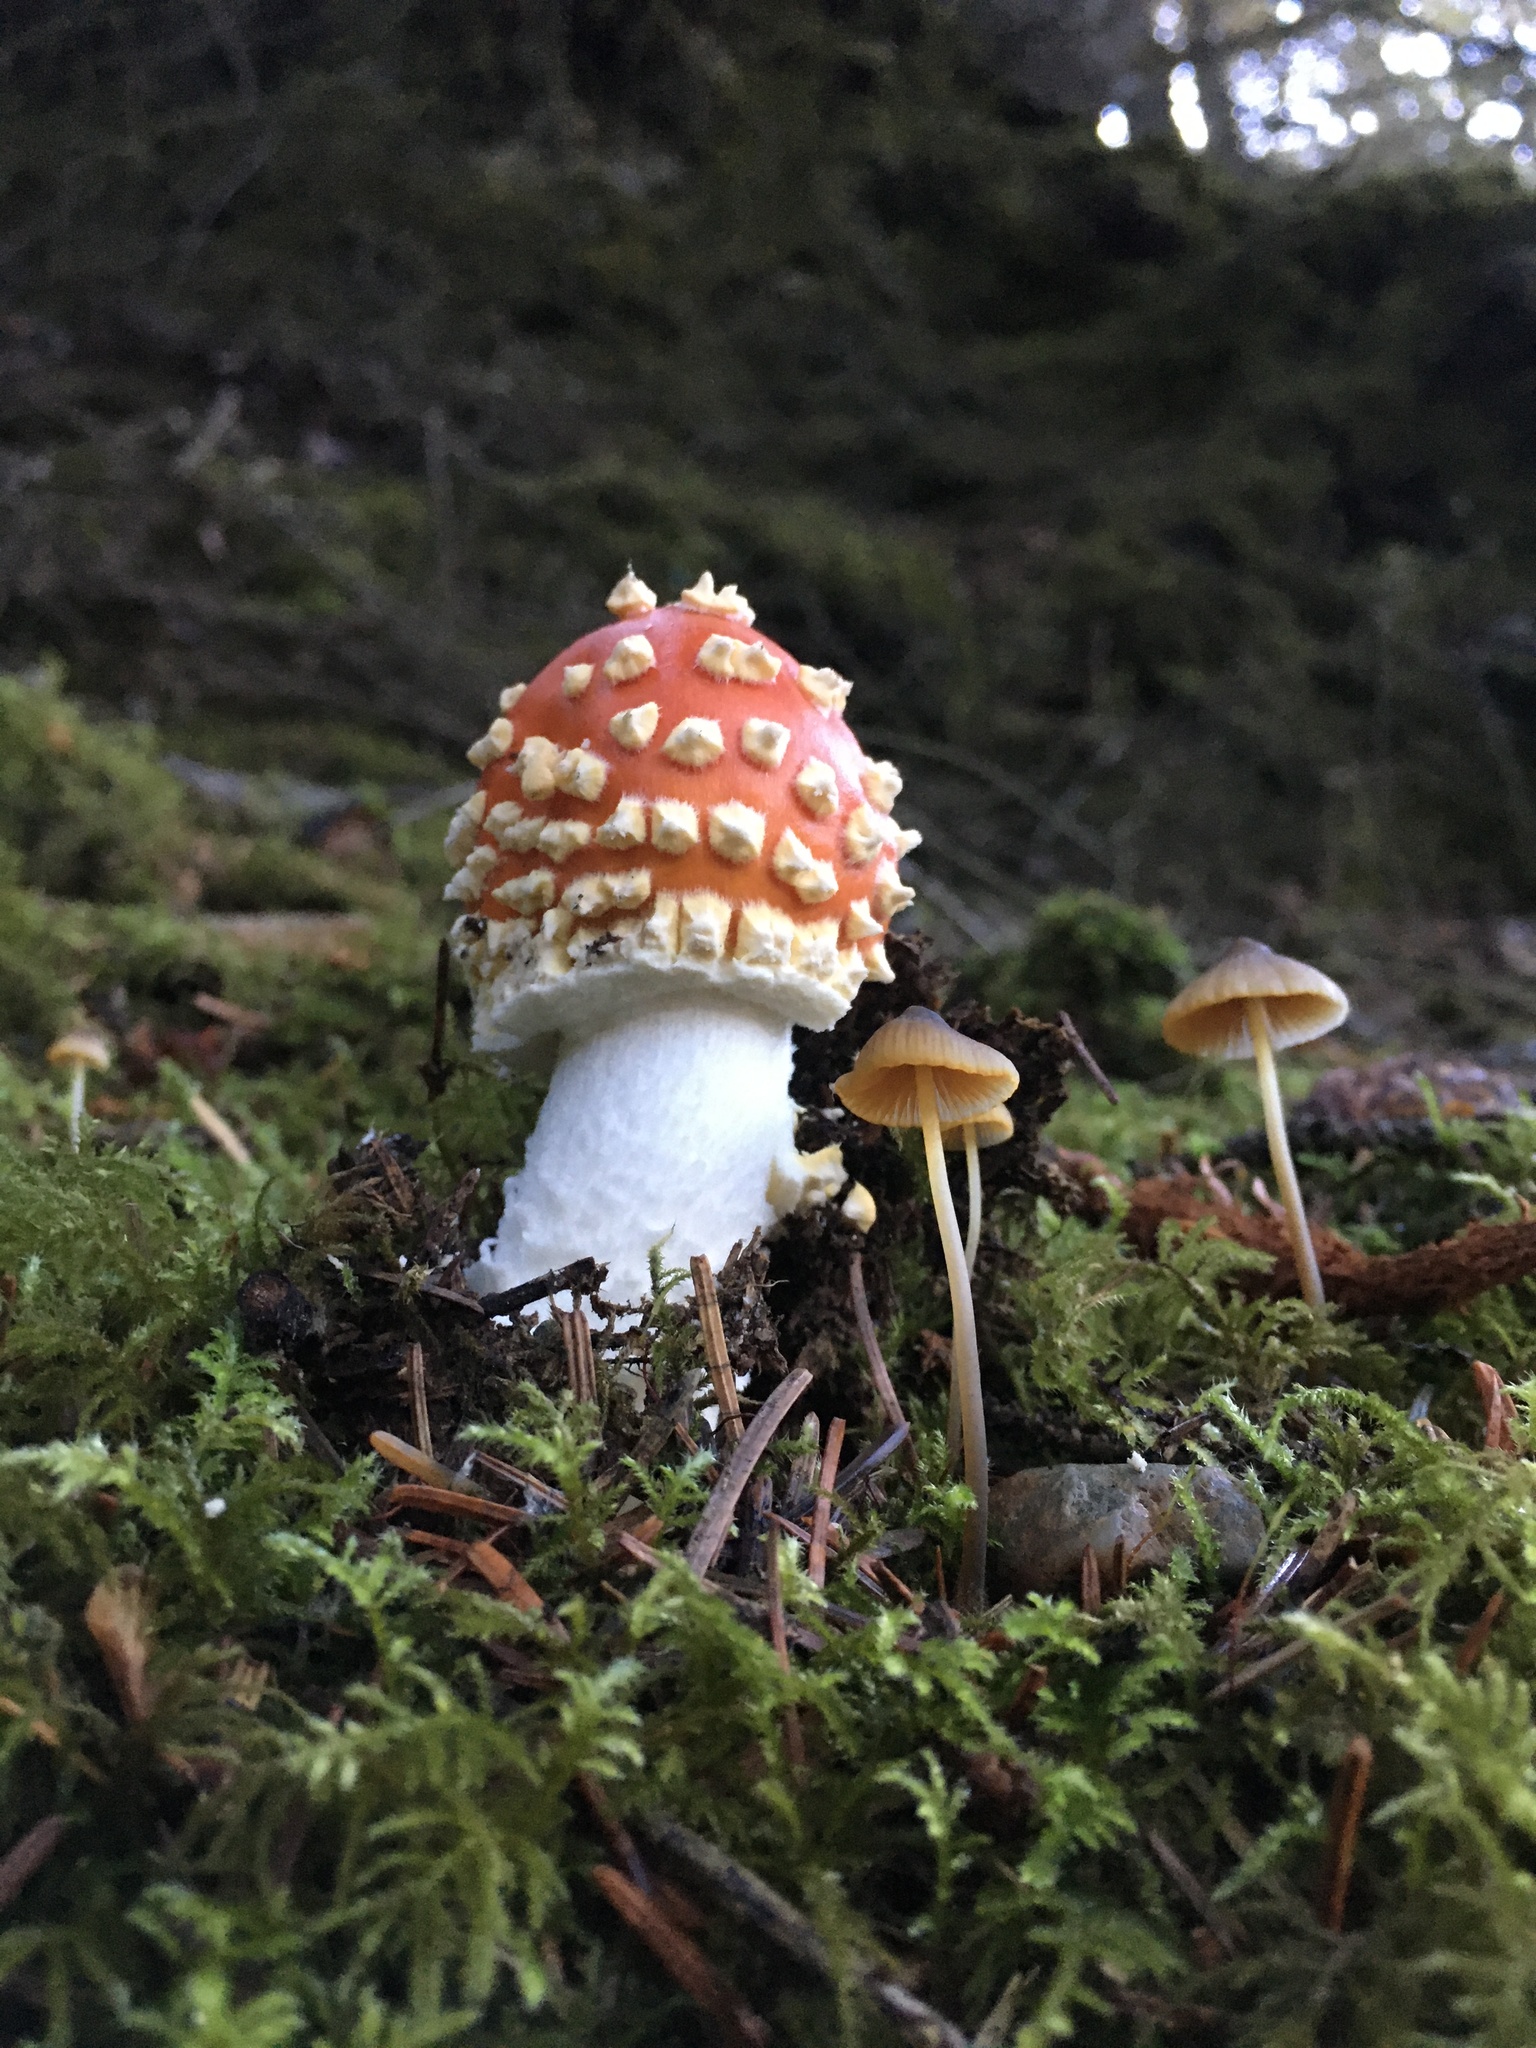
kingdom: Fungi
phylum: Basidiomycota
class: Agaricomycetes
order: Agaricales
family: Amanitaceae
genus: Amanita
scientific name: Amanita muscaria
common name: Fly agaric
